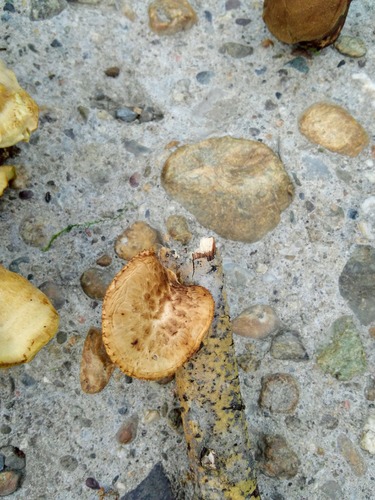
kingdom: Fungi
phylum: Basidiomycota
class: Agaricomycetes
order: Polyporales
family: Polyporaceae
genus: Cerioporus
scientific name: Cerioporus squamosus
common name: Dryad's saddle
